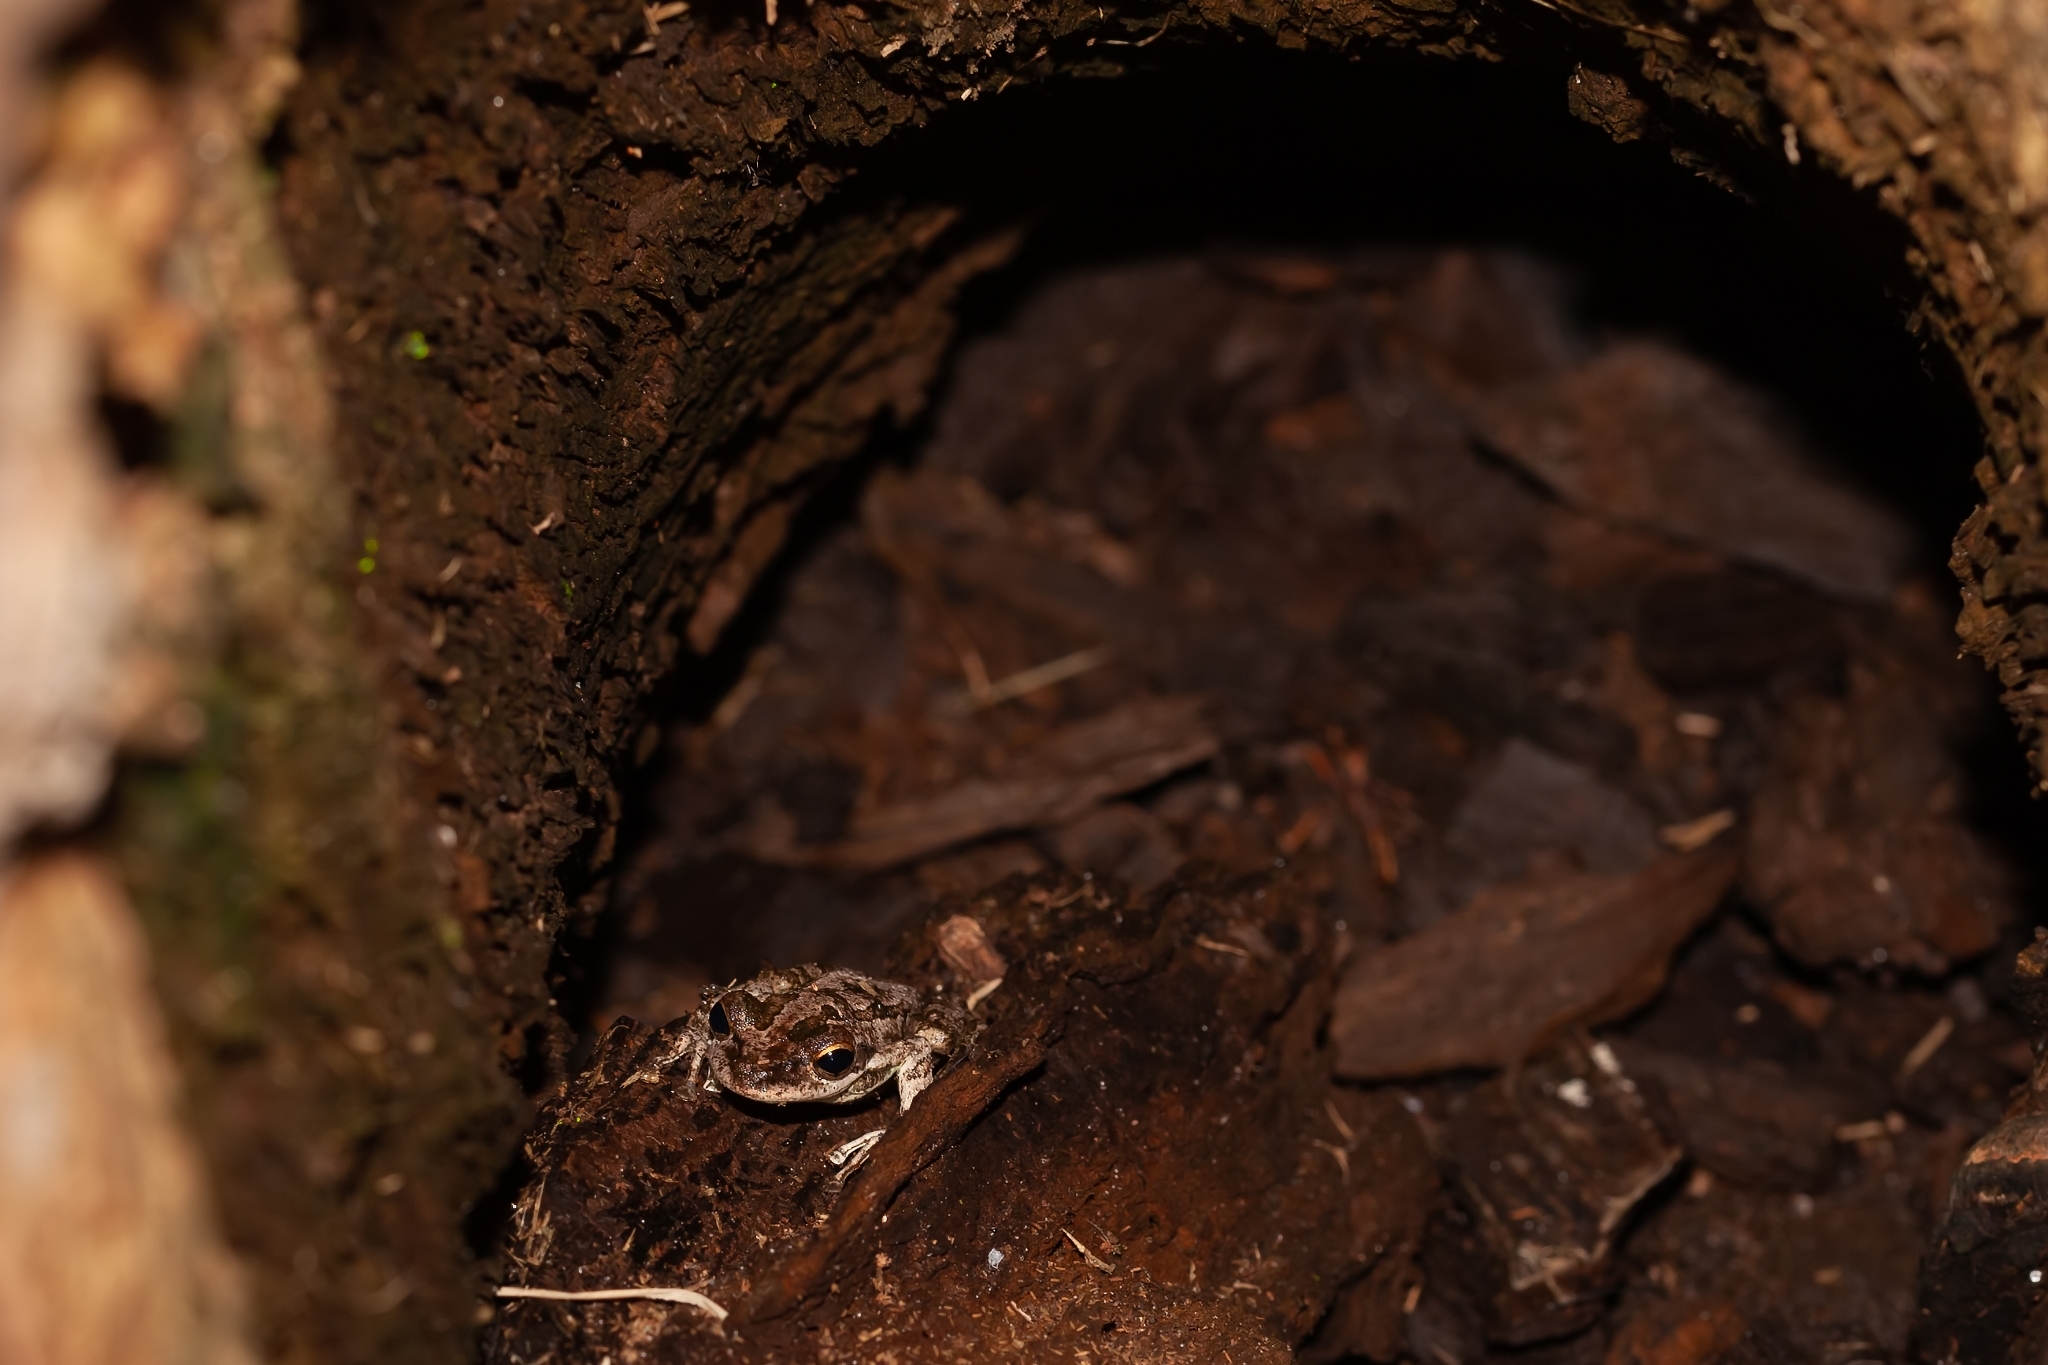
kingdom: Animalia
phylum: Chordata
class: Amphibia
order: Anura
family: Hylidae
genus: Osteopilus
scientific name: Osteopilus septentrionalis
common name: Cuban treefrog
